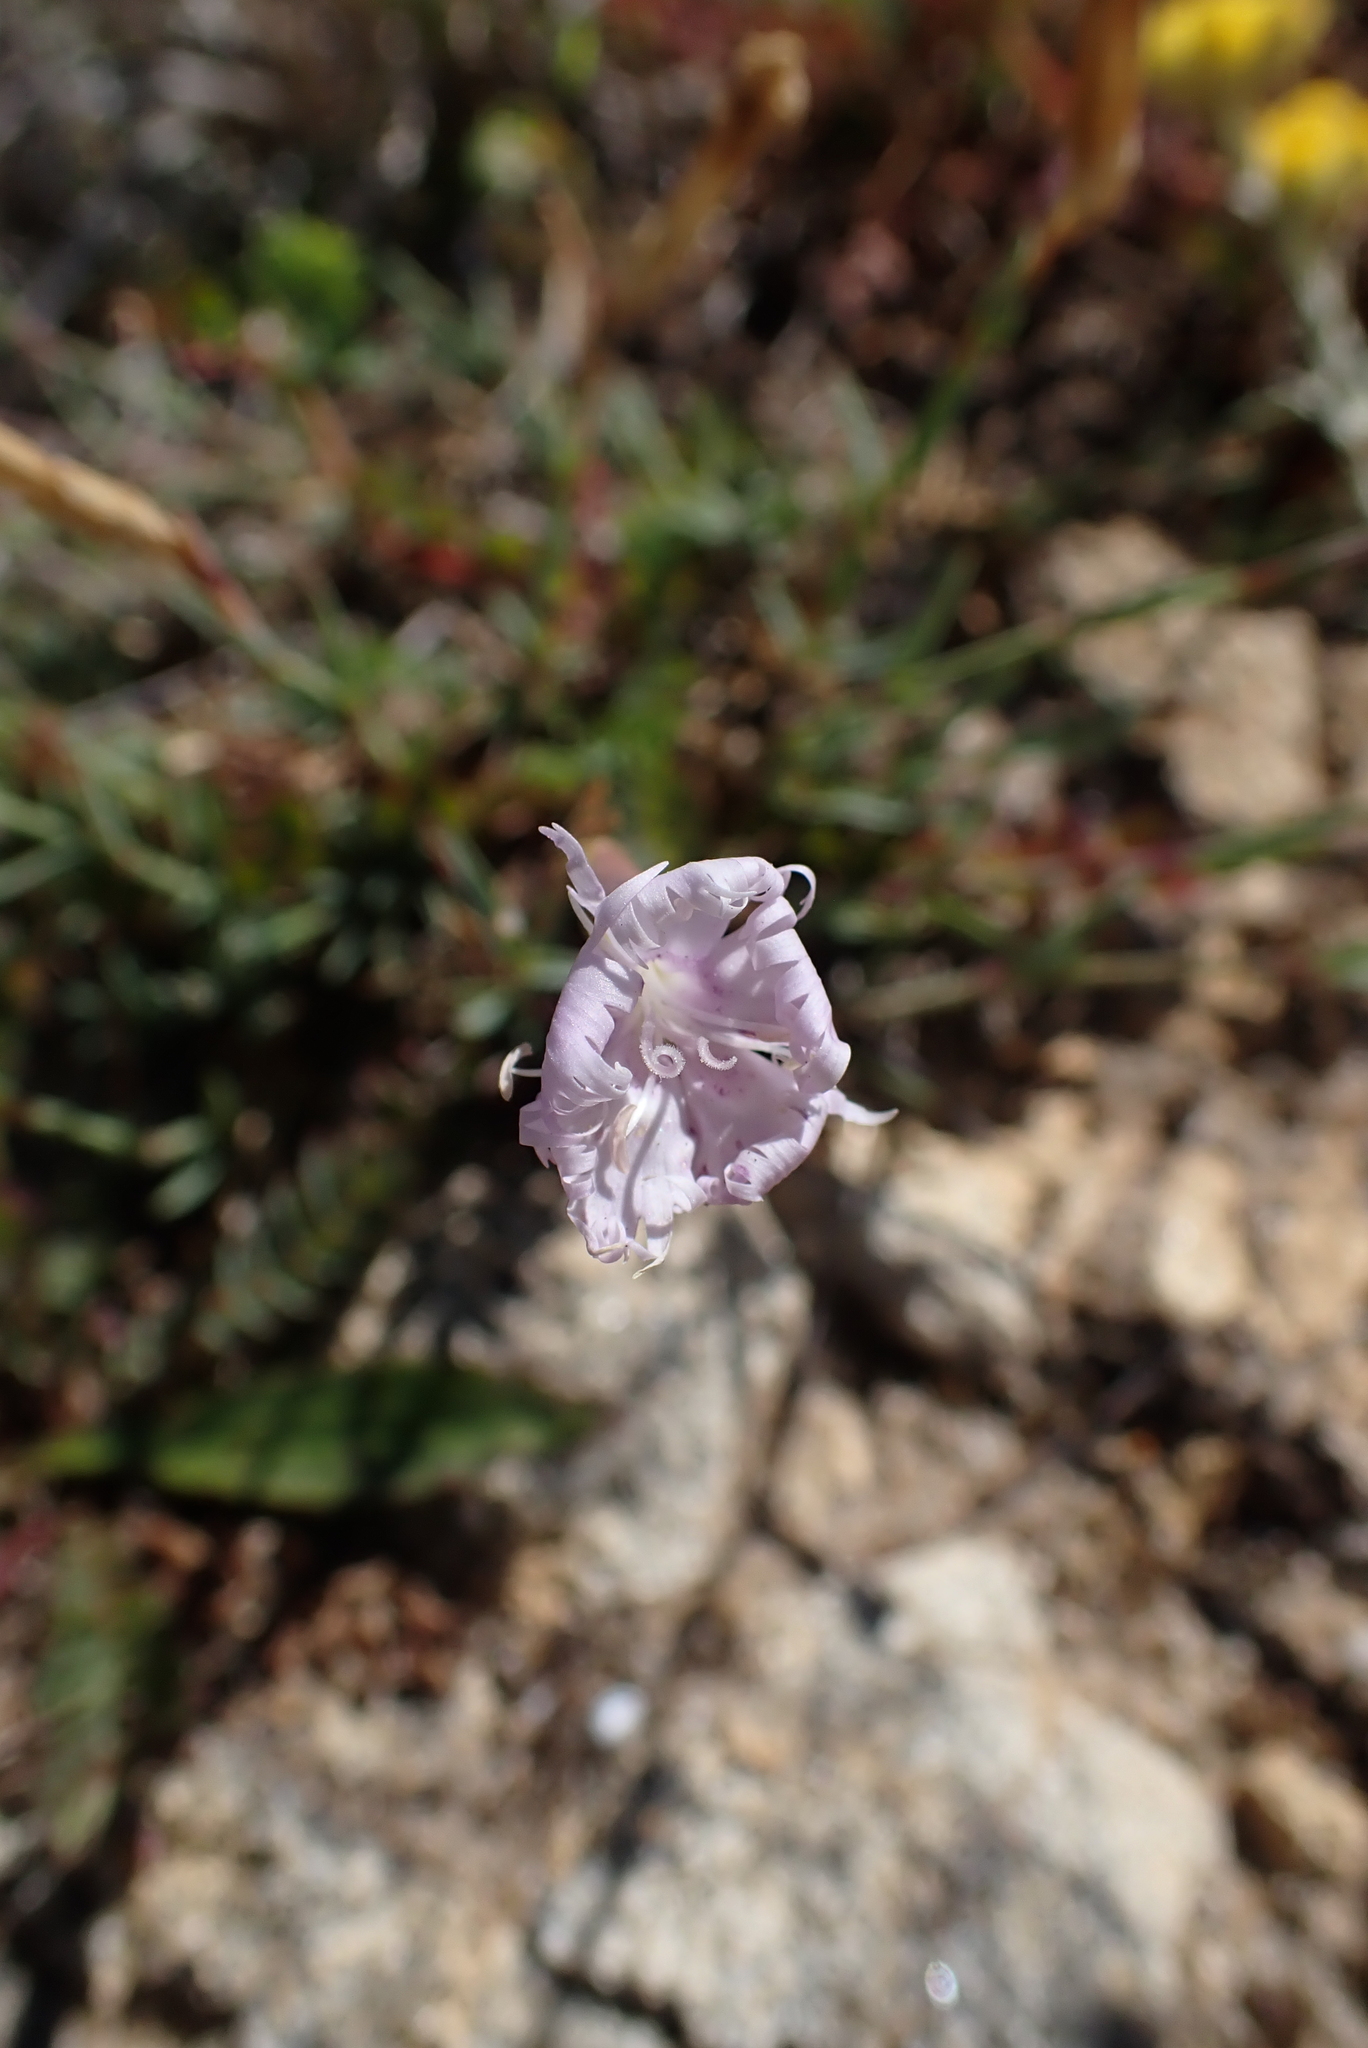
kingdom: Plantae
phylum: Tracheophyta
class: Magnoliopsida
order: Caryophyllales
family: Caryophyllaceae
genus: Dianthus
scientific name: Dianthus gallicus
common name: Jersey pink
